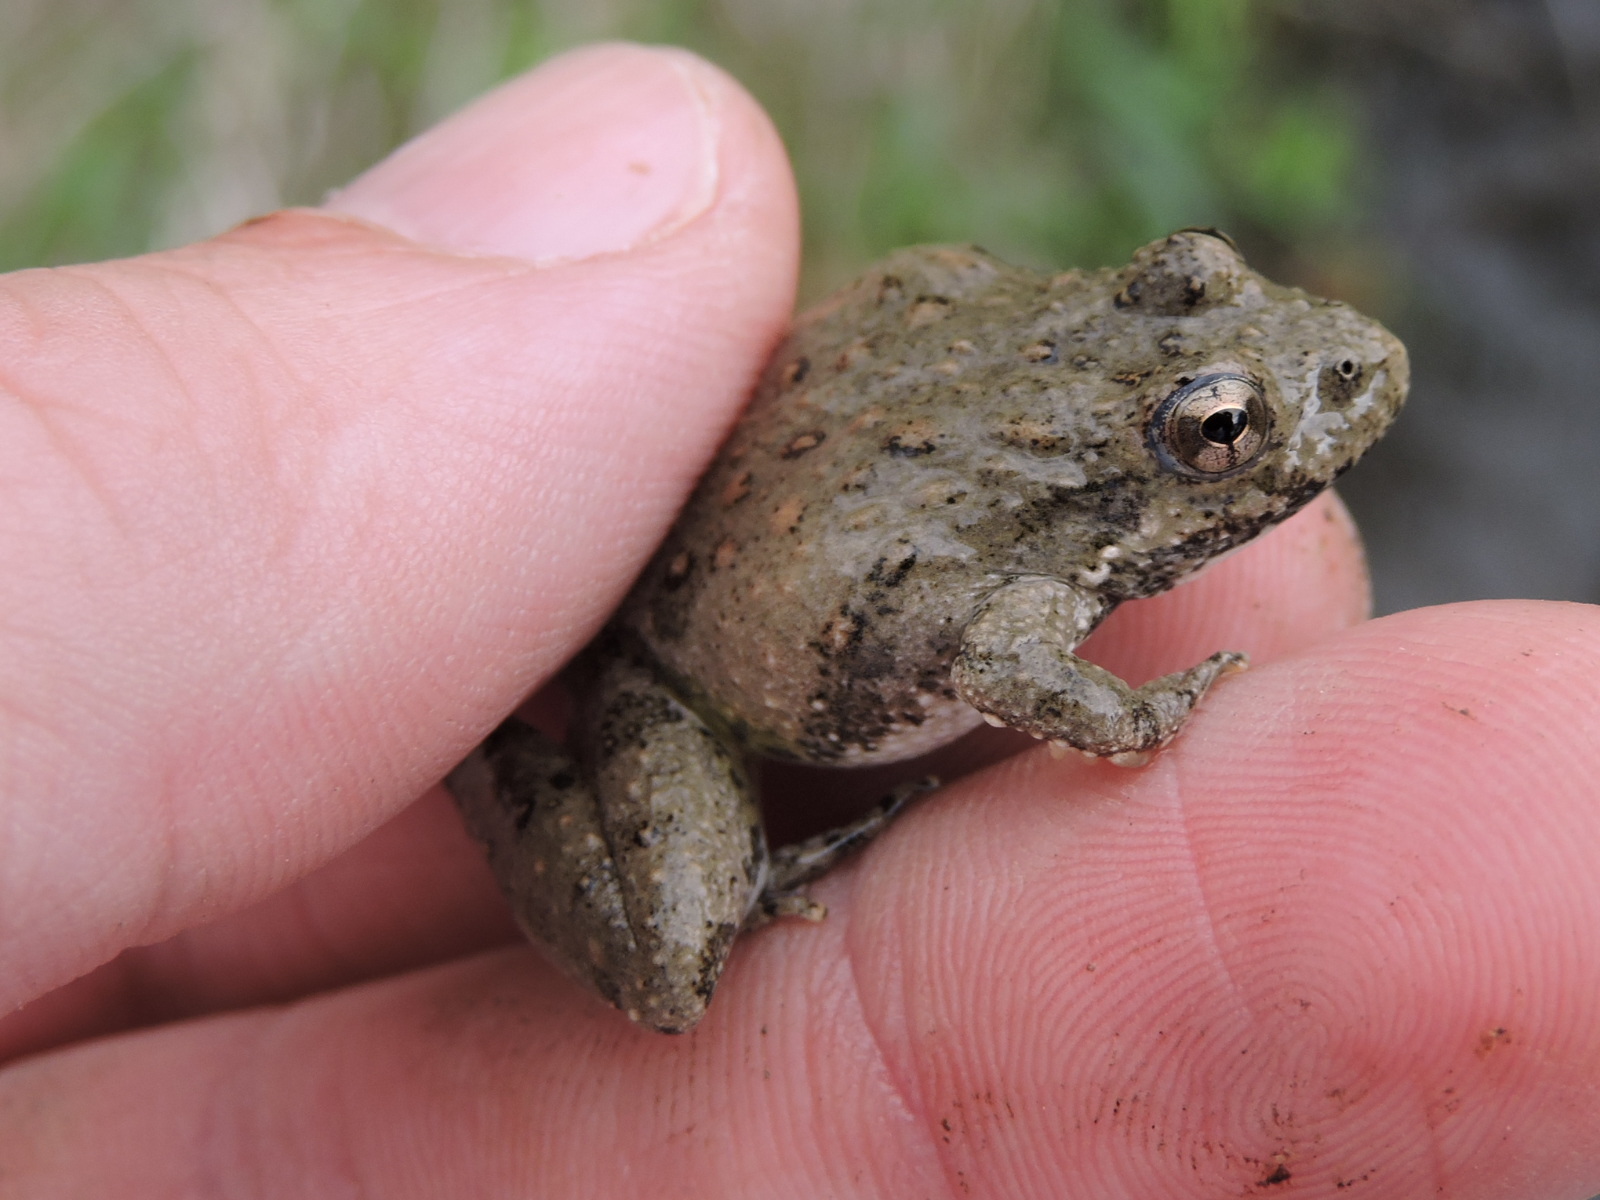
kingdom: Animalia
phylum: Chordata
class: Amphibia
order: Anura
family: Hylidae
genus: Acris
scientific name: Acris blanchardi
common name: Blanchard's cricket frog
